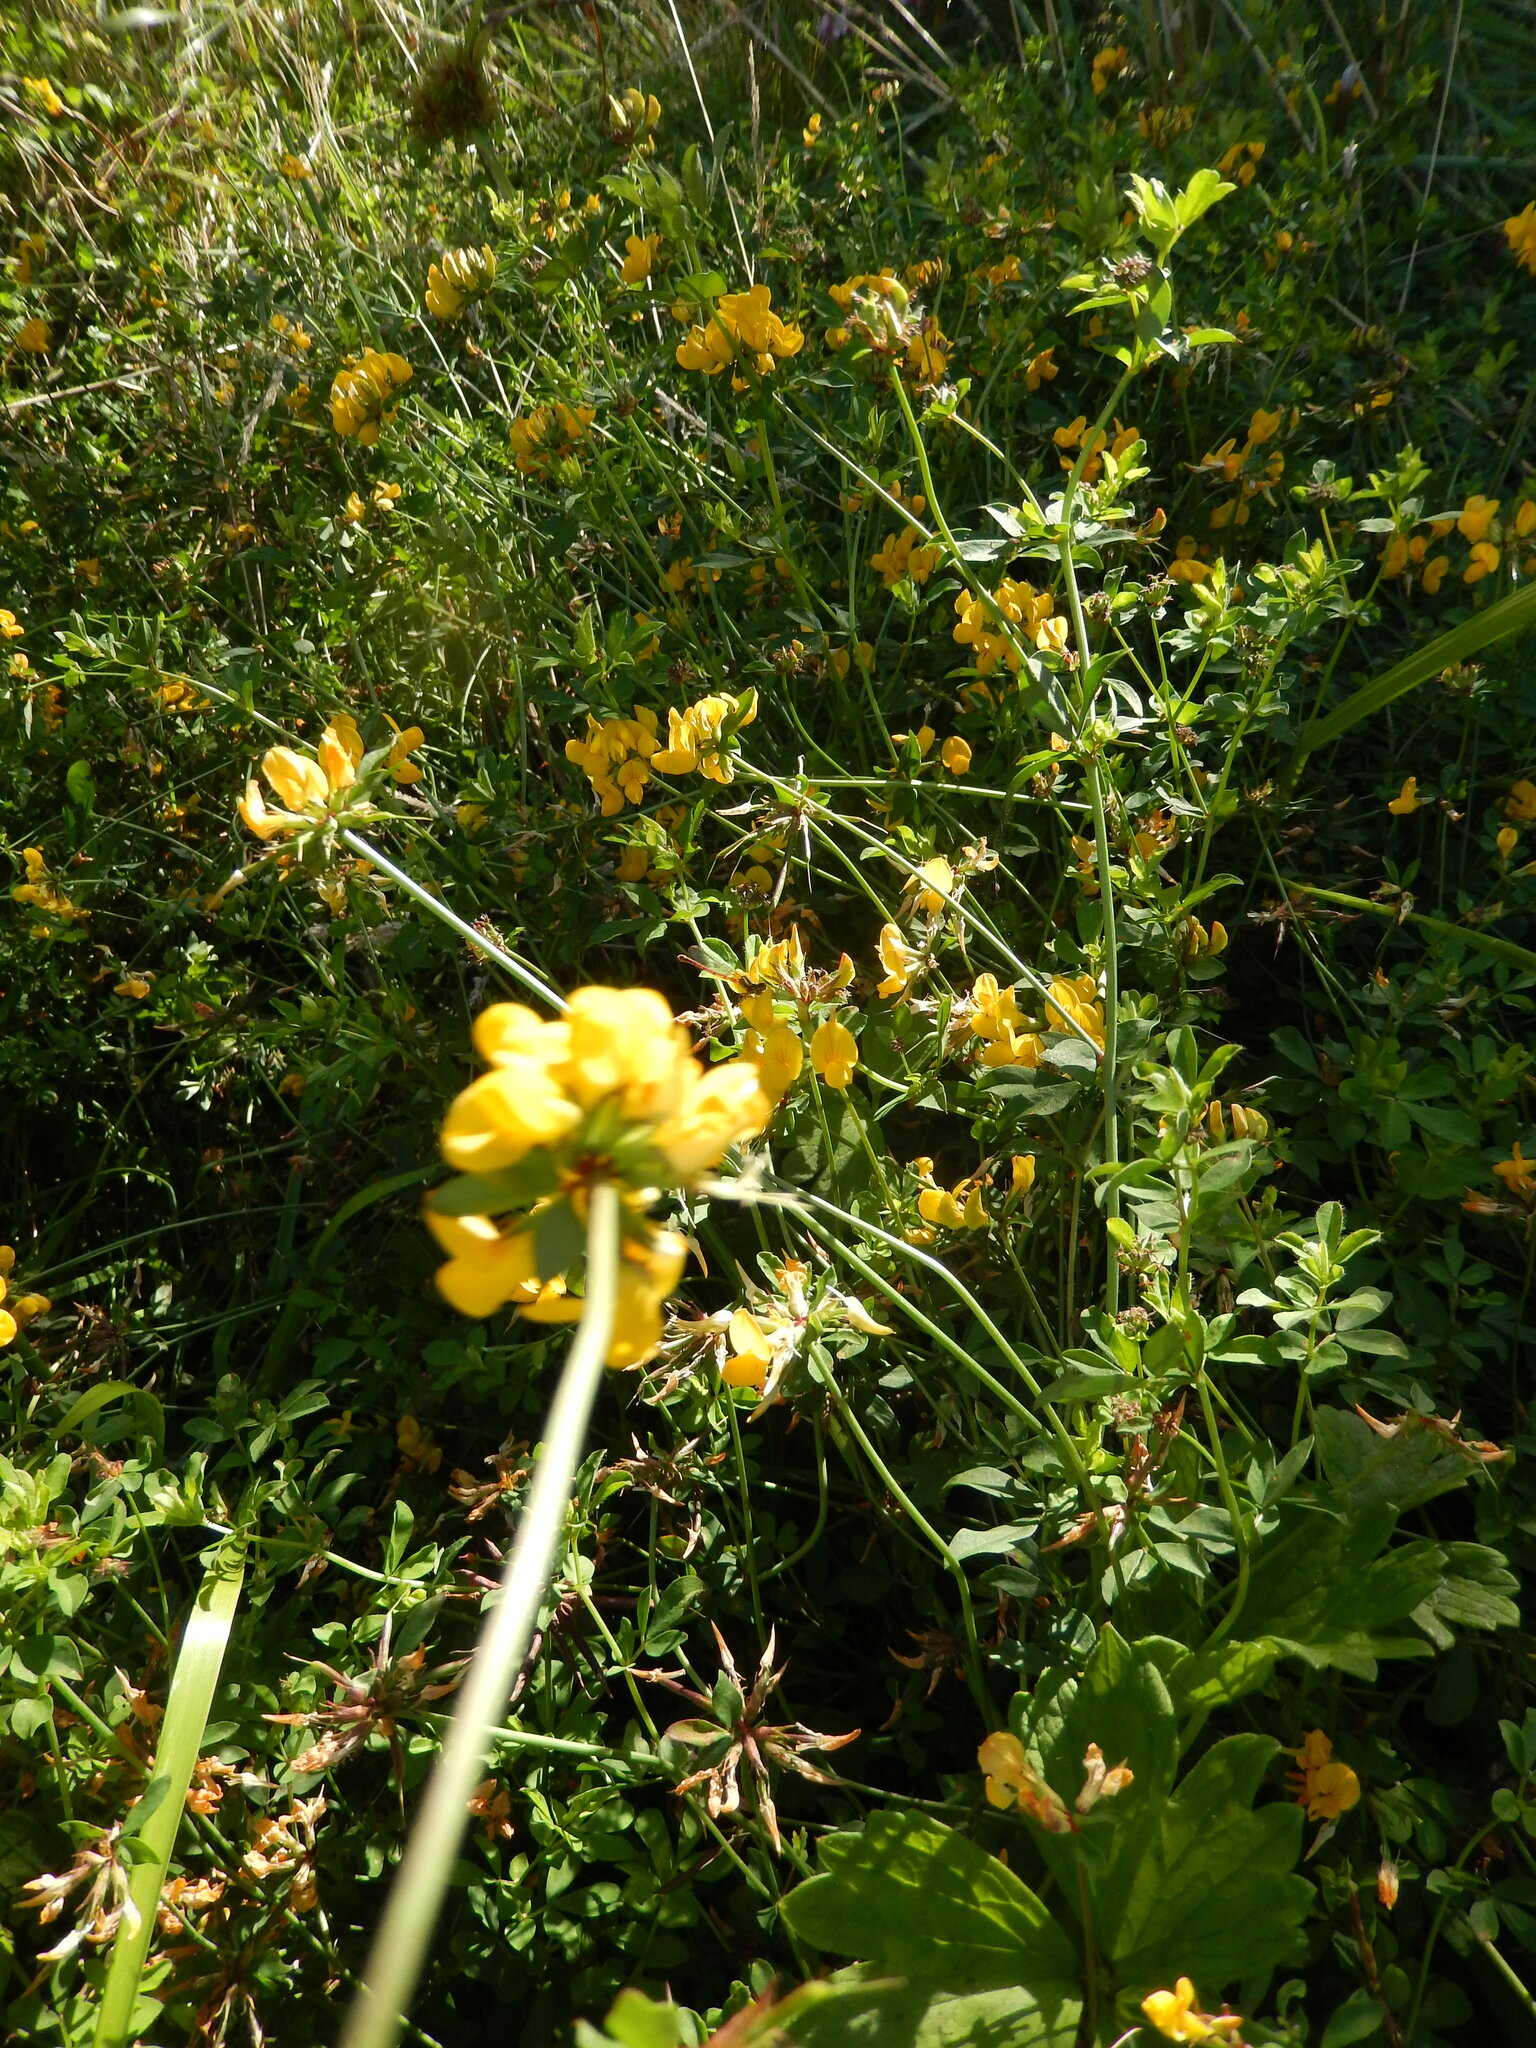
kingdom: Plantae
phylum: Tracheophyta
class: Magnoliopsida
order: Fabales
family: Fabaceae
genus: Lotus
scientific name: Lotus pedunculatus
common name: Greater birdsfoot-trefoil
